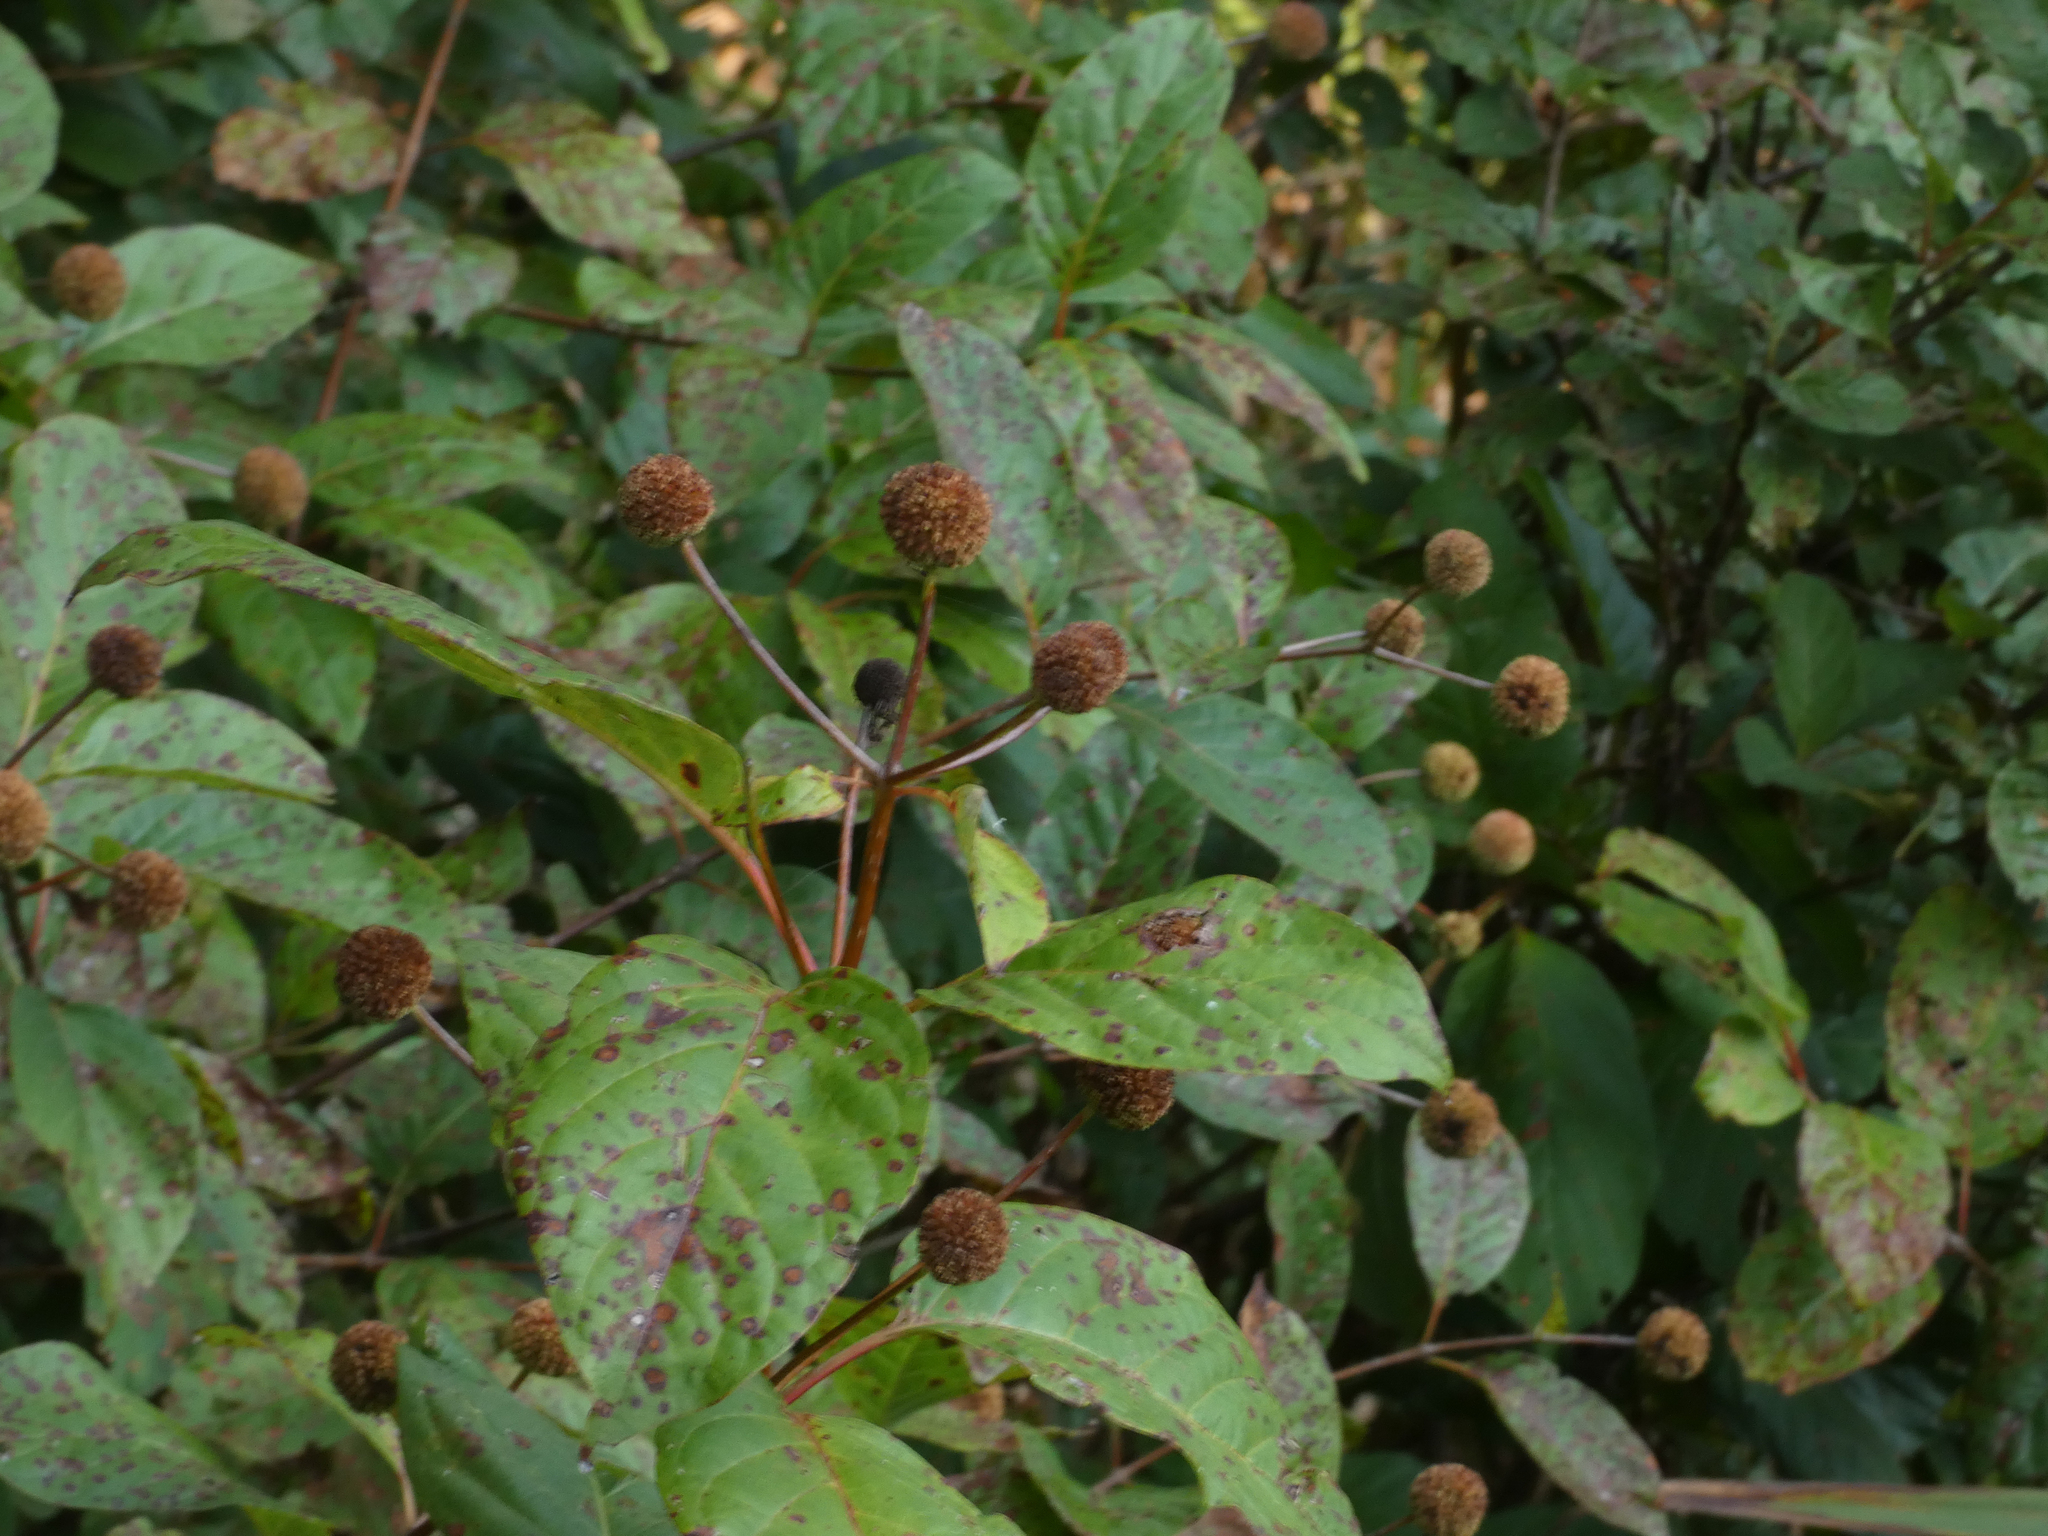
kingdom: Plantae
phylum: Tracheophyta
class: Magnoliopsida
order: Gentianales
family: Rubiaceae
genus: Cephalanthus
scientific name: Cephalanthus occidentalis
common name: Button-willow
